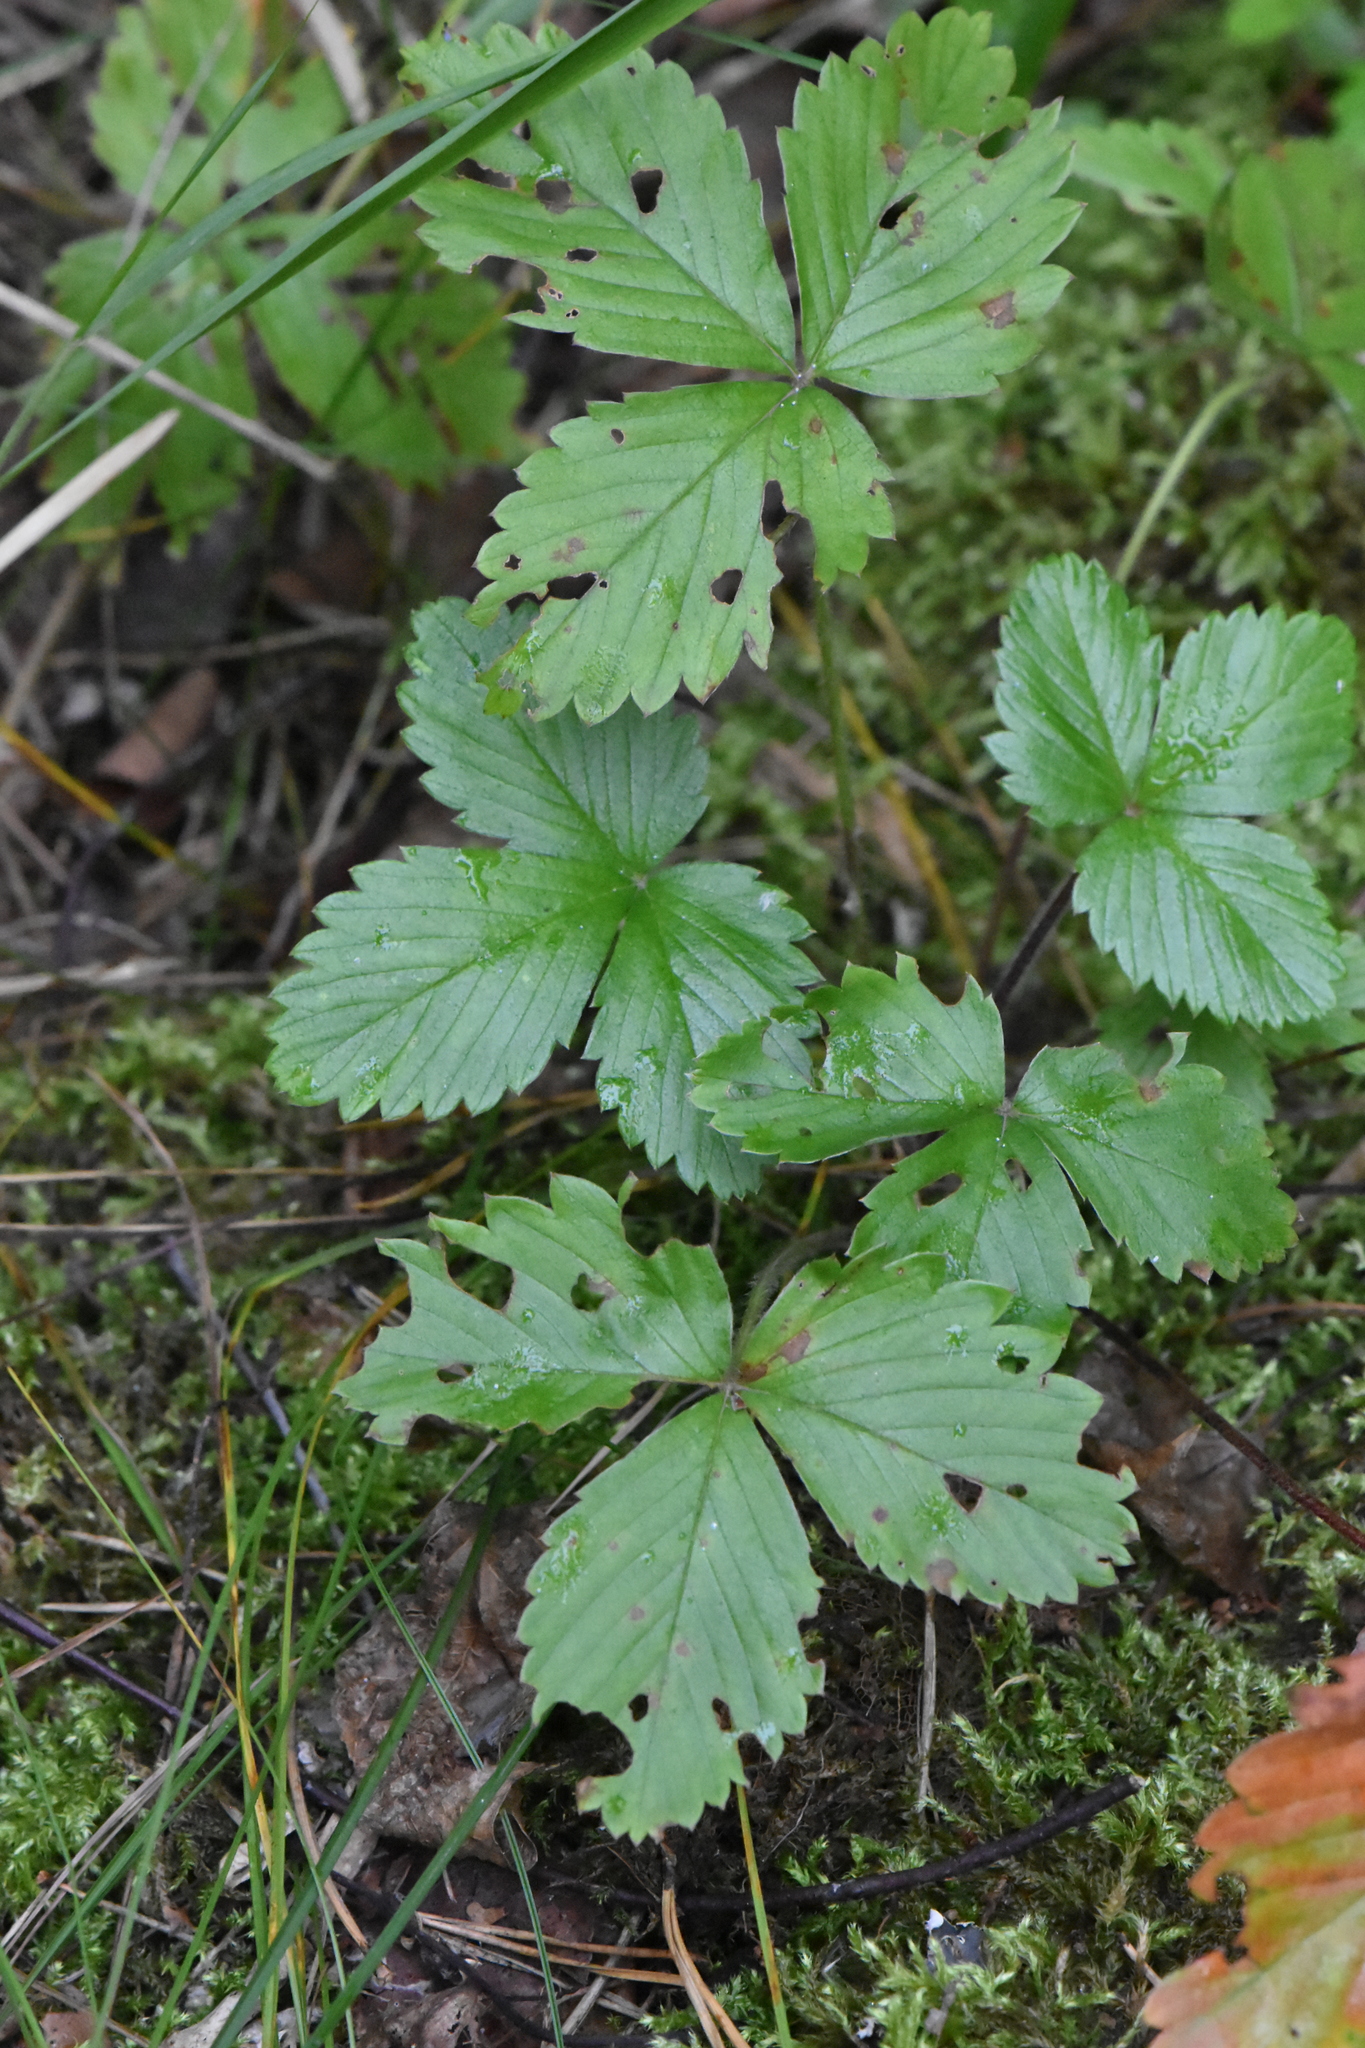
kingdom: Plantae
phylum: Tracheophyta
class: Magnoliopsida
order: Rosales
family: Rosaceae
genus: Fragaria
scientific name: Fragaria vesca
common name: Wild strawberry
